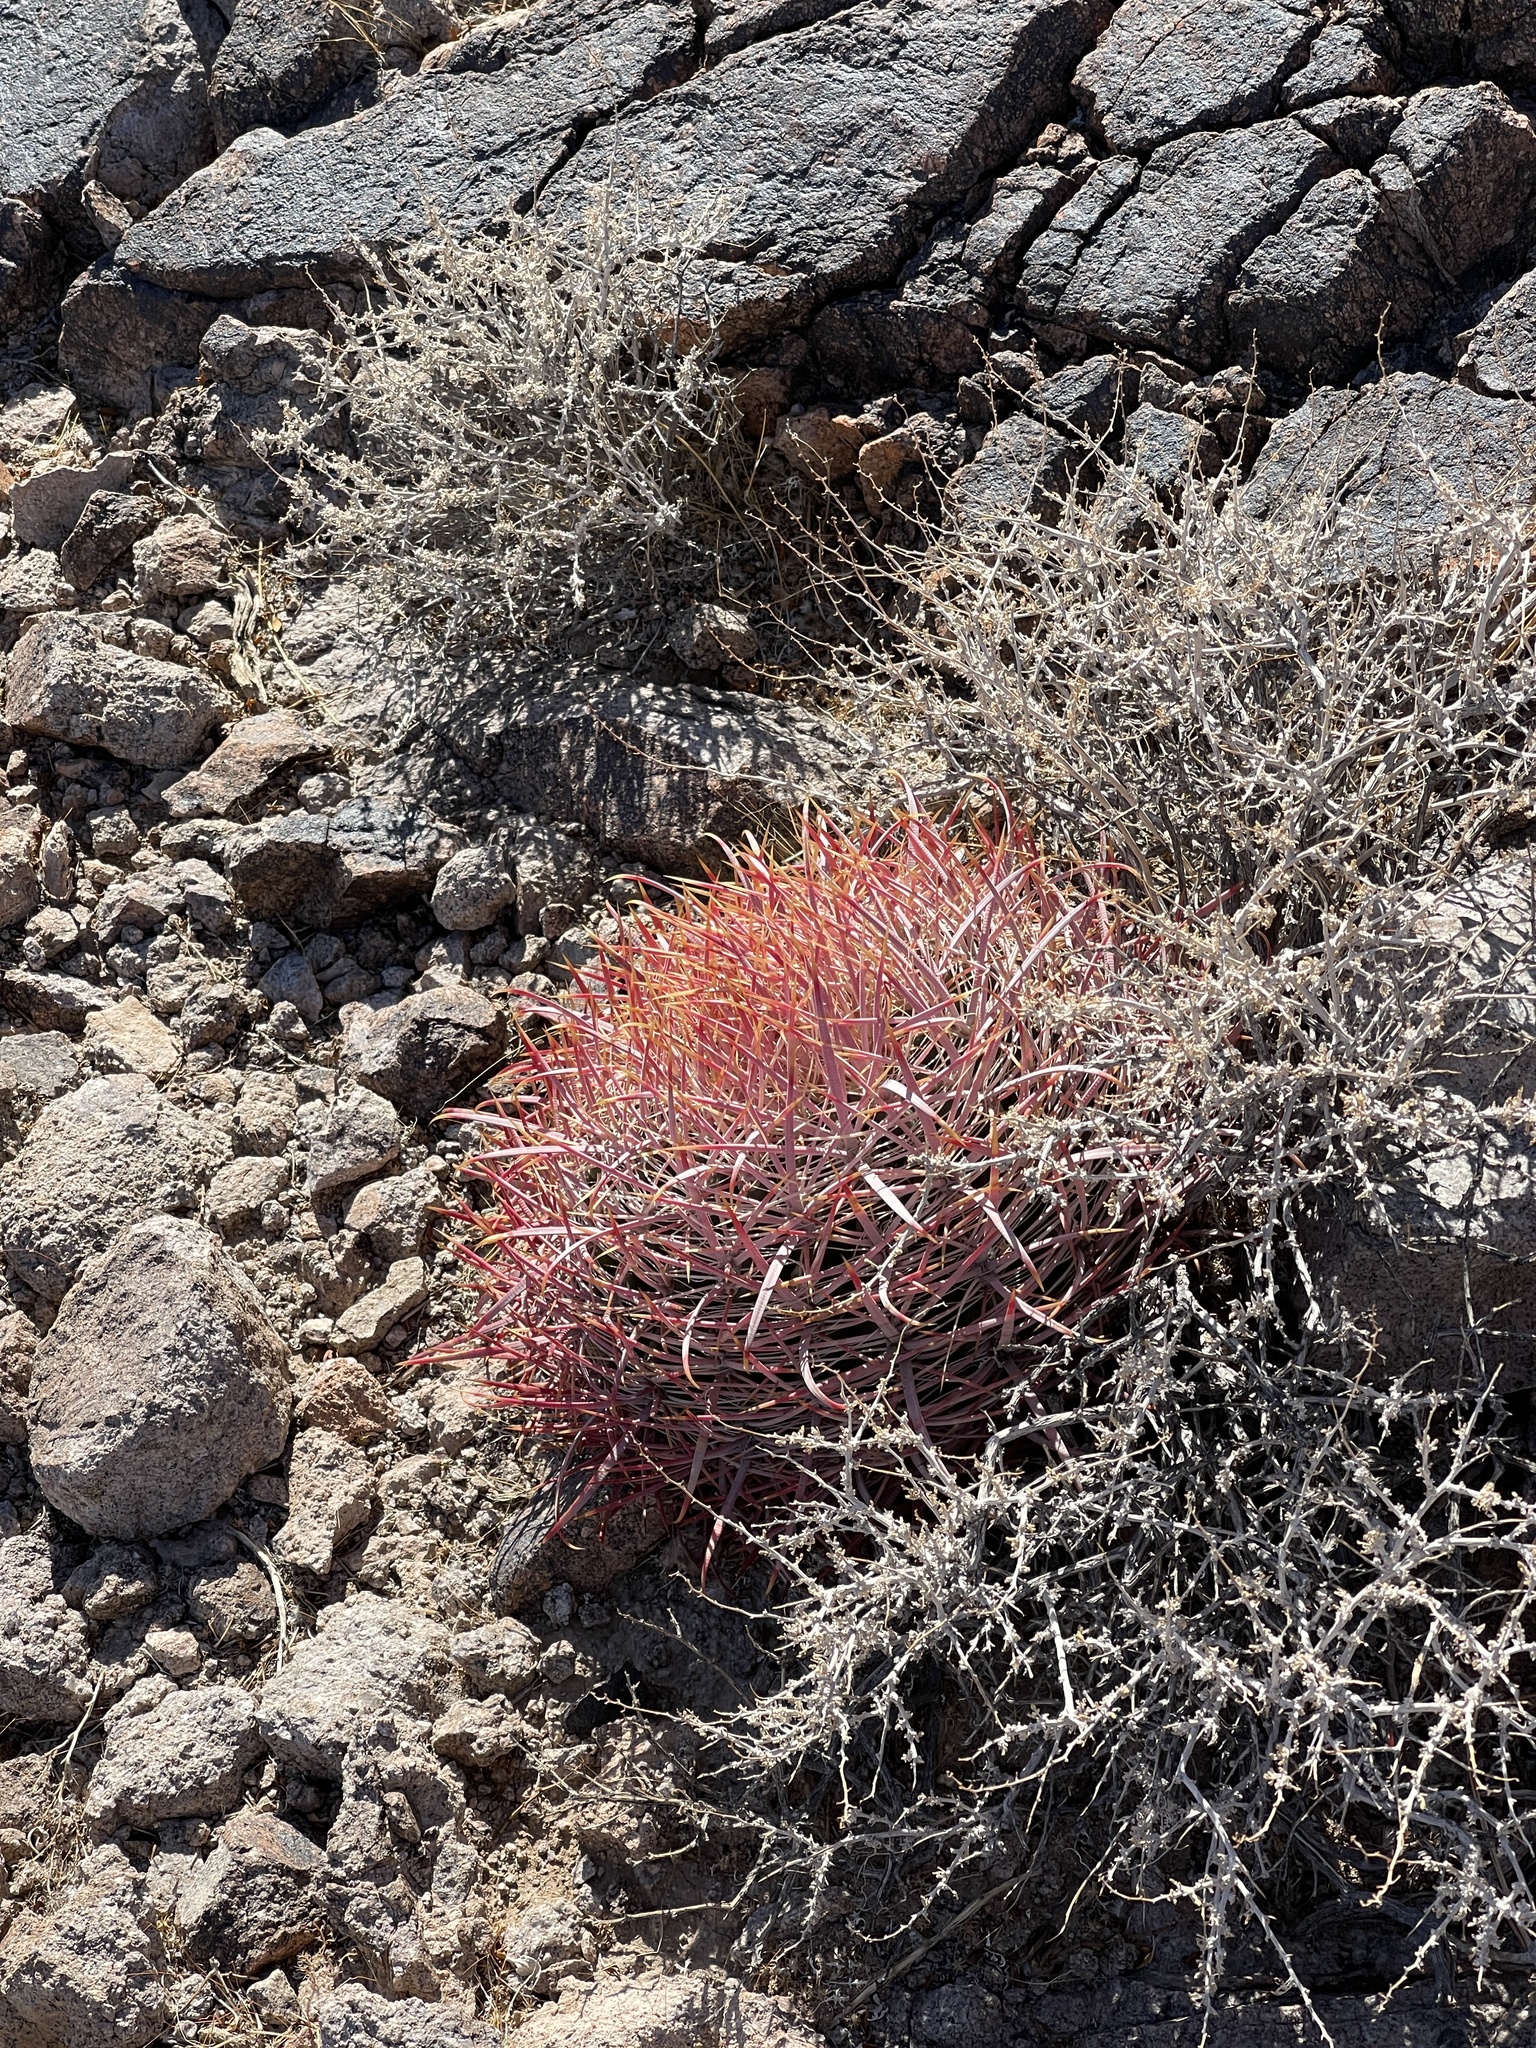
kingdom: Plantae
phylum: Tracheophyta
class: Magnoliopsida
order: Caryophyllales
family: Cactaceae
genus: Ferocactus
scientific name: Ferocactus cylindraceus
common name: California barrel cactus
